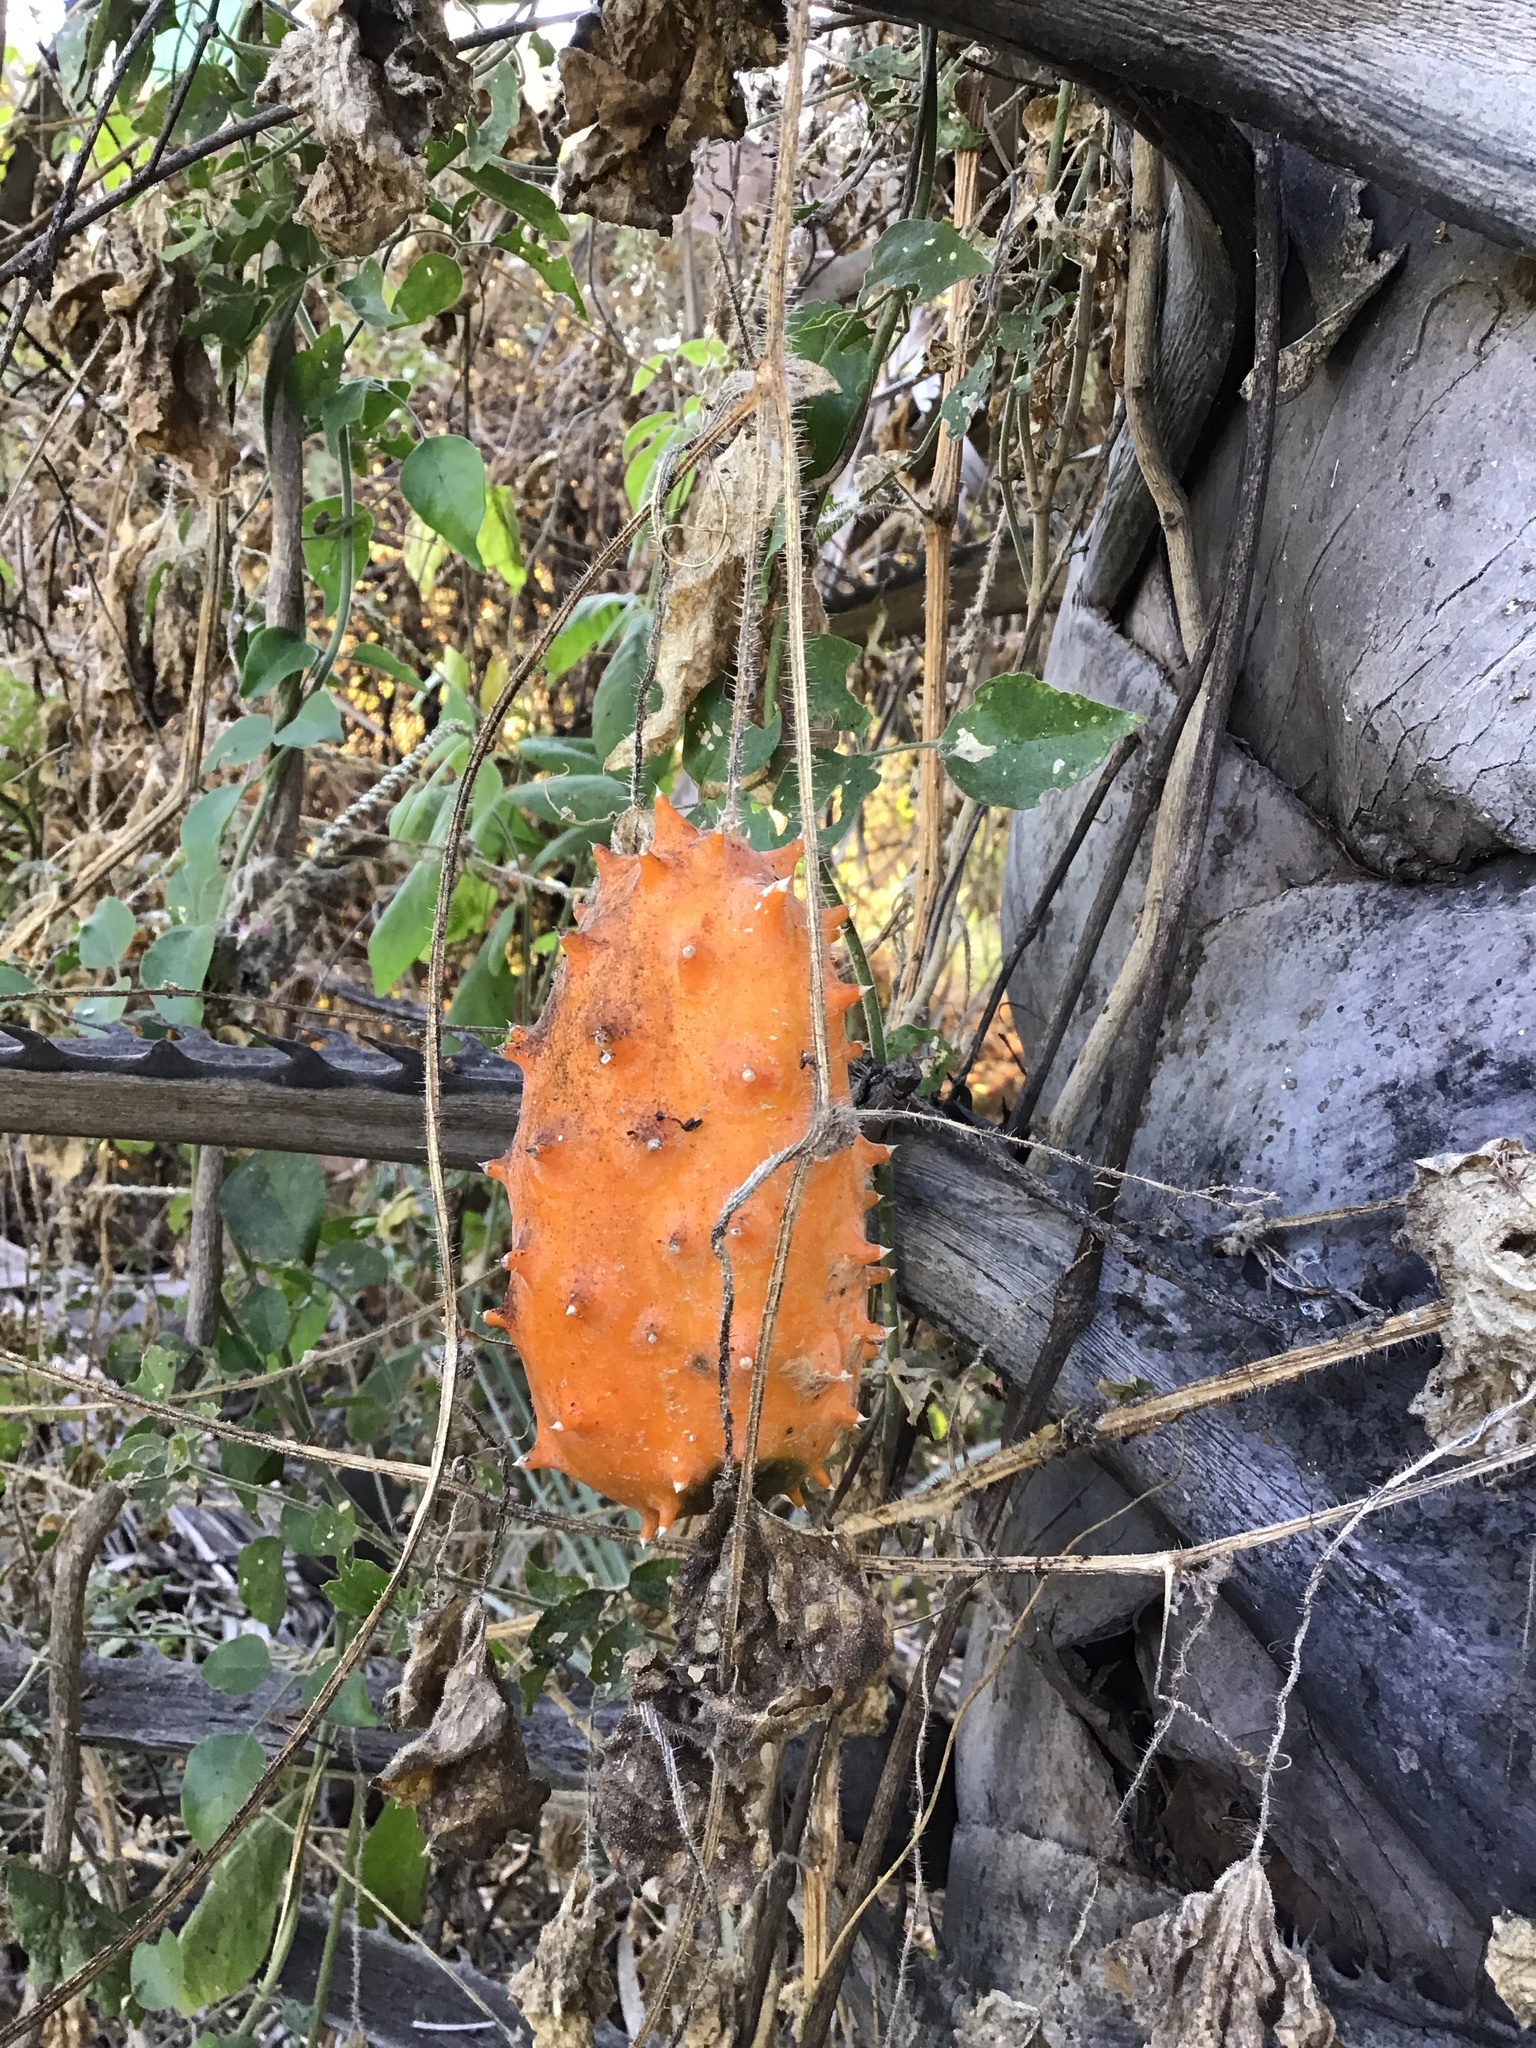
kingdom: Plantae
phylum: Tracheophyta
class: Magnoliopsida
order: Cucurbitales
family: Cucurbitaceae
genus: Cucumis
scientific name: Cucumis metuliferus
